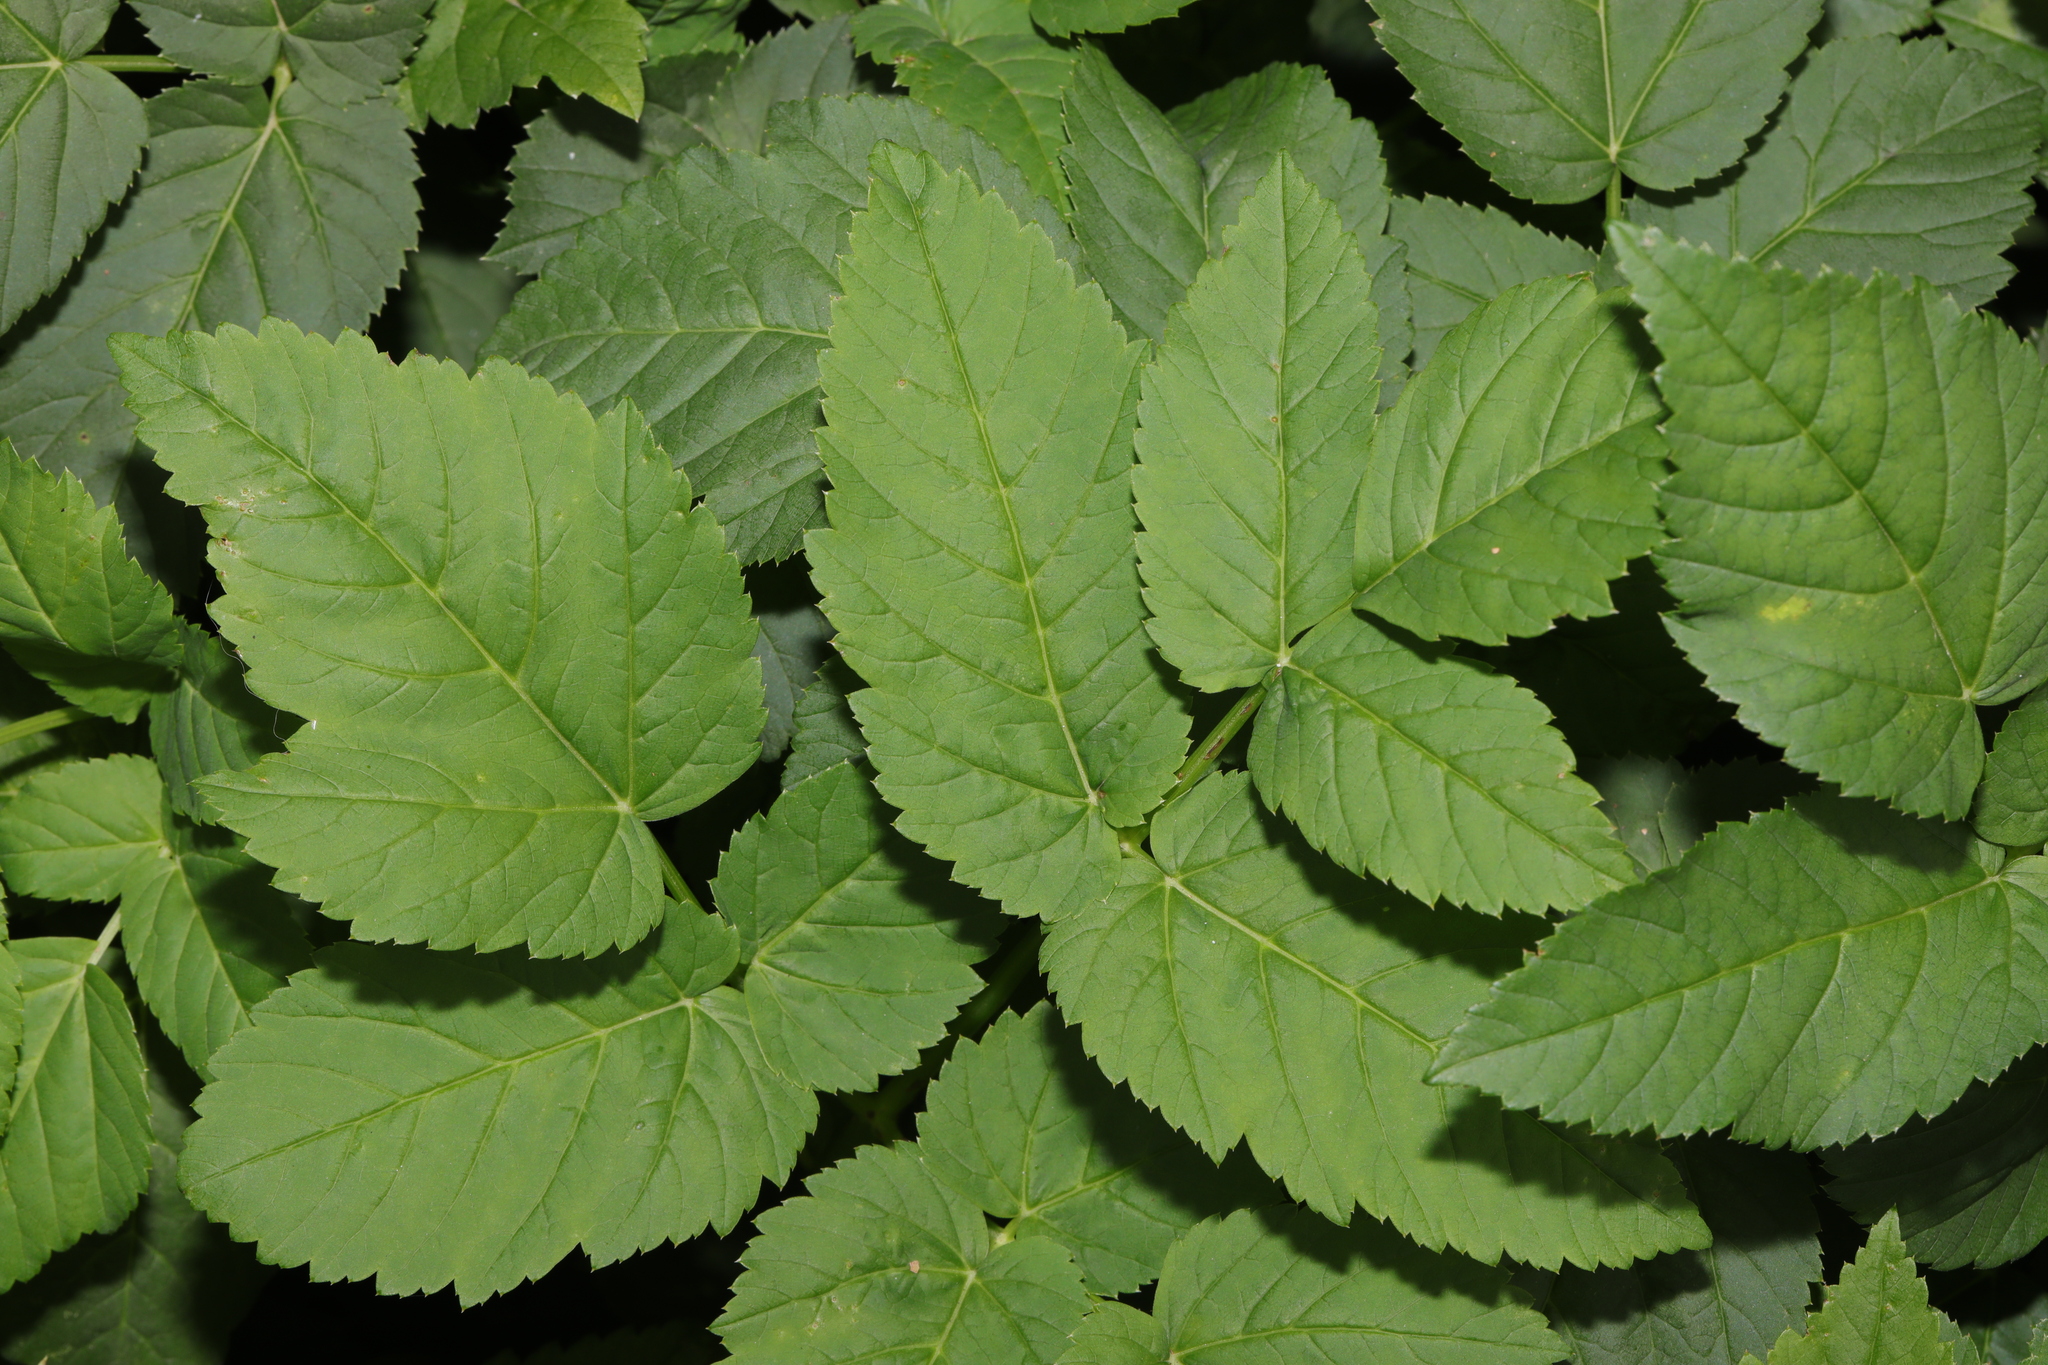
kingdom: Plantae
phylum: Tracheophyta
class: Magnoliopsida
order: Apiales
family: Apiaceae
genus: Aegopodium
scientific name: Aegopodium podagraria
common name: Ground-elder
